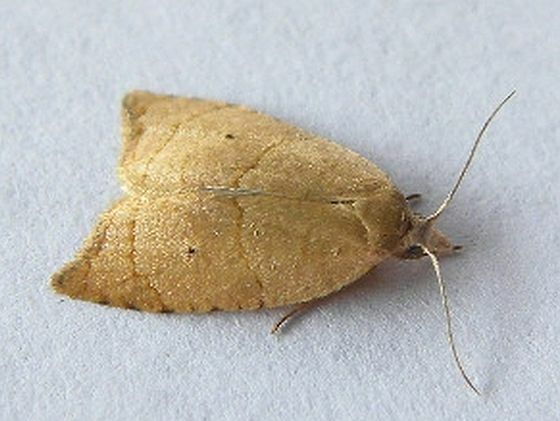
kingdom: Animalia
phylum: Arthropoda
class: Insecta
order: Lepidoptera
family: Tortricidae
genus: Coelostathma
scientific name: Coelostathma discopunctana
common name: Batman moth
